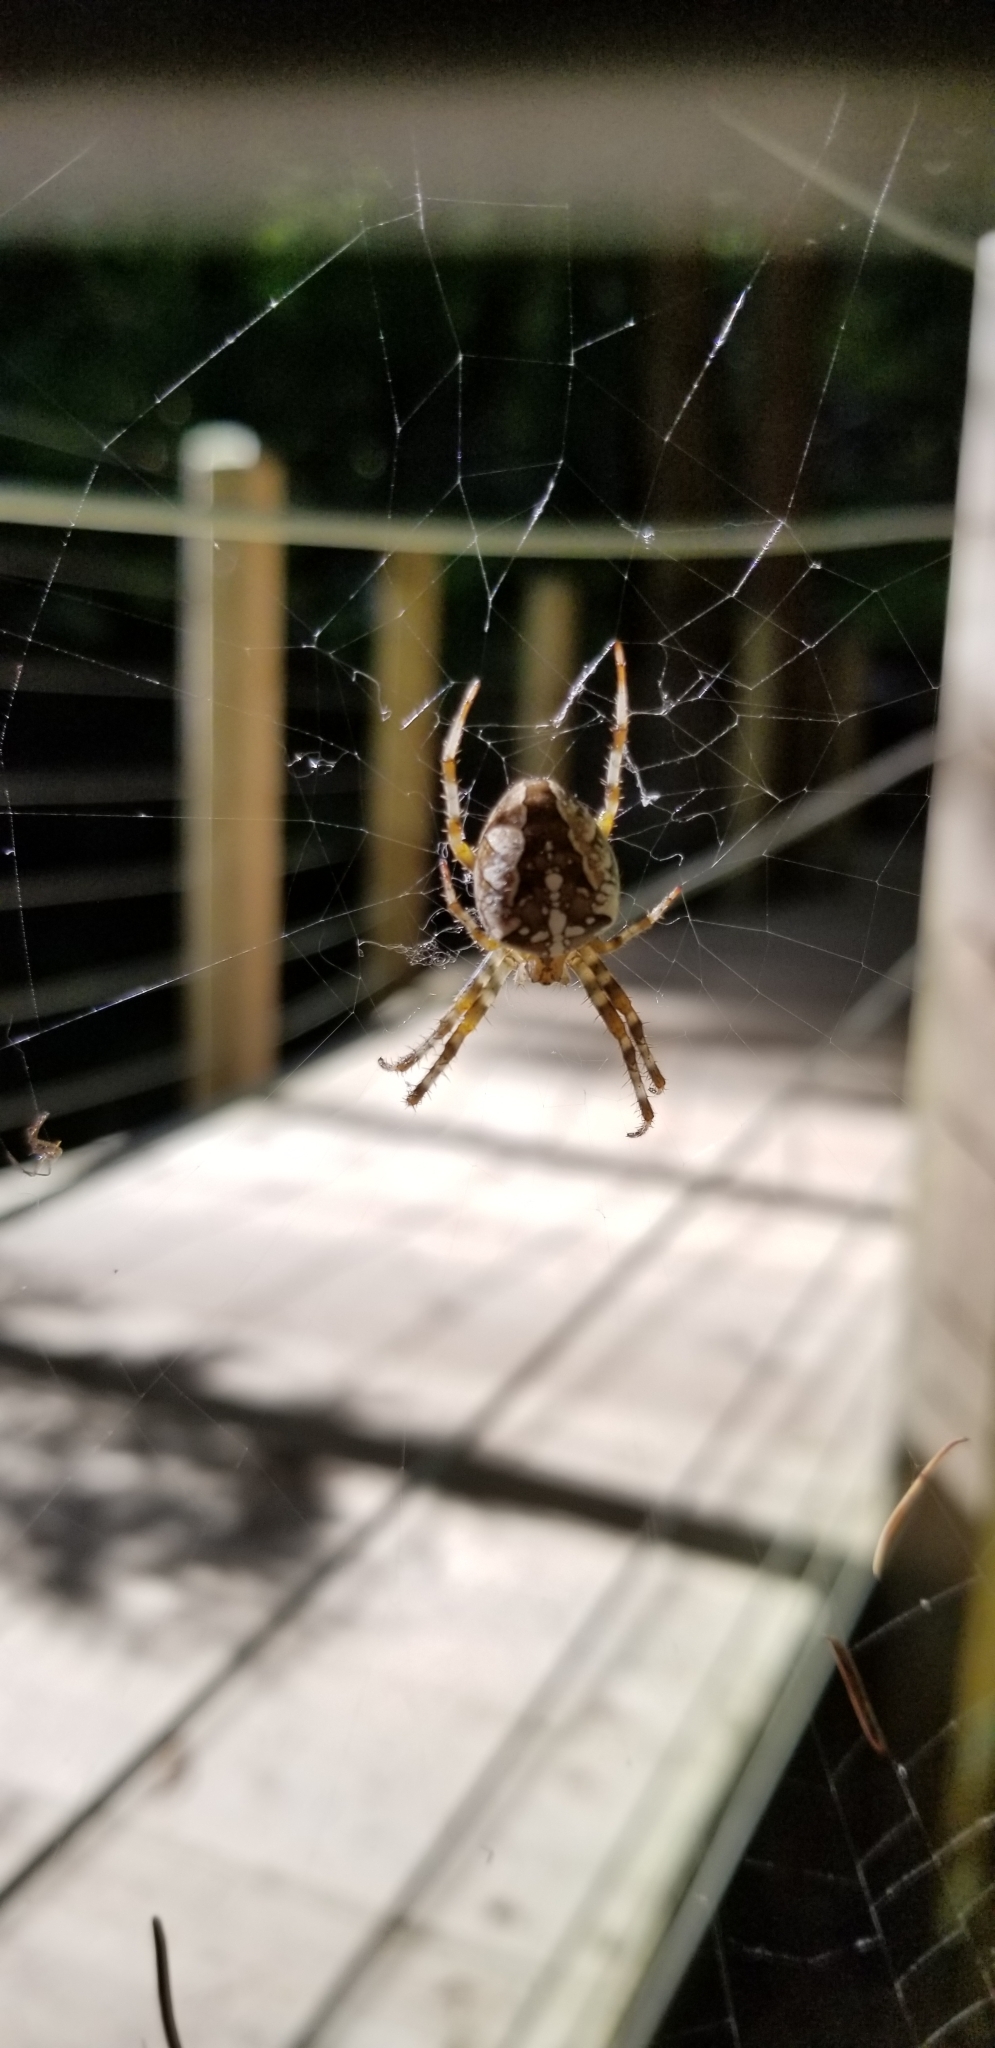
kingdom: Animalia
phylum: Arthropoda
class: Arachnida
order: Araneae
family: Araneidae
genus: Araneus
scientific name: Araneus diadematus
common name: Cross orbweaver
